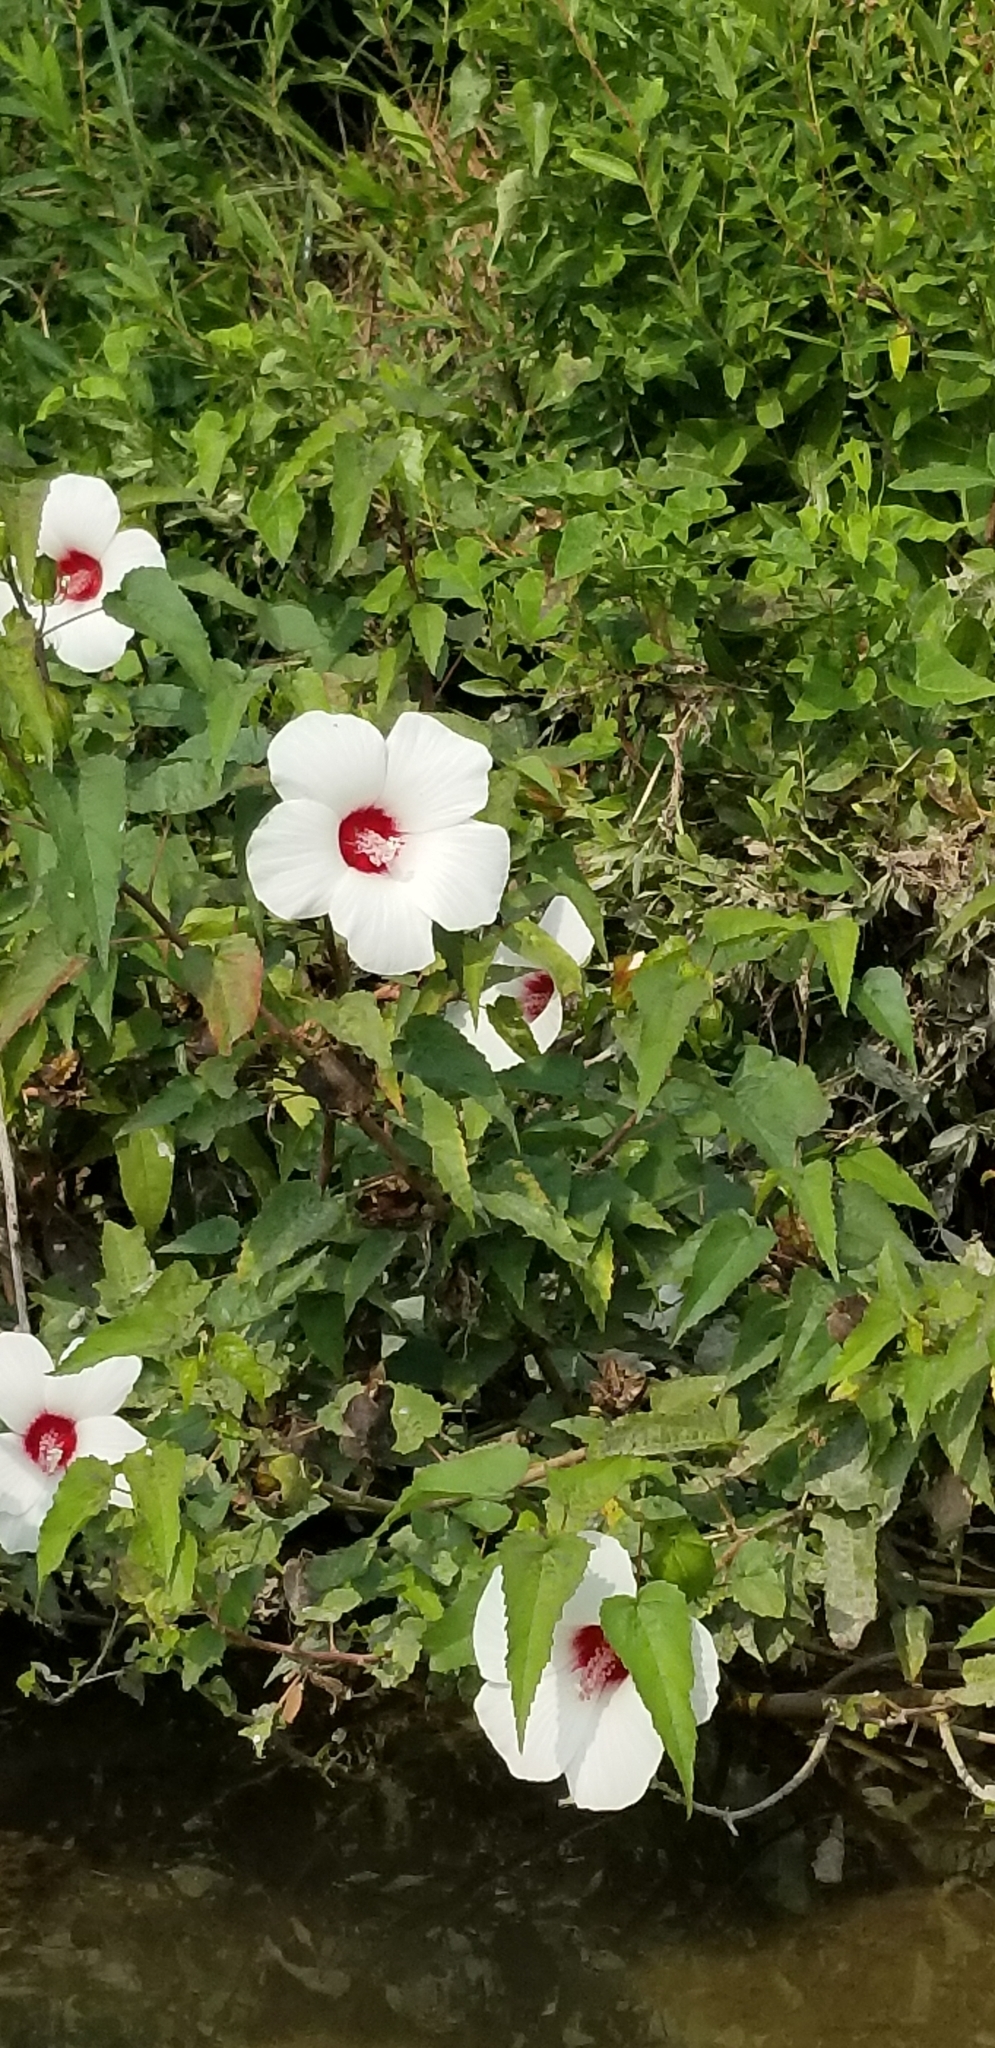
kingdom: Plantae
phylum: Tracheophyta
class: Magnoliopsida
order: Malvales
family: Malvaceae
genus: Hibiscus
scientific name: Hibiscus laevis
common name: Scarlet rose-mallow
